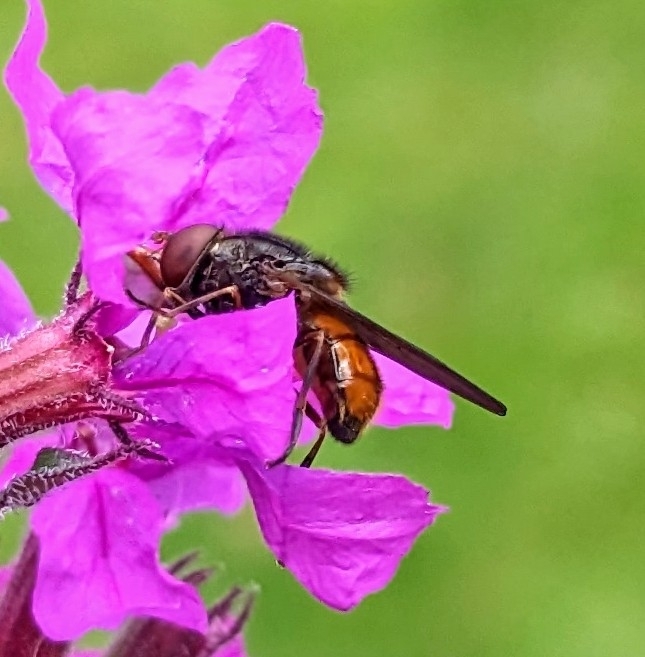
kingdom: Animalia
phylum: Arthropoda
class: Insecta
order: Diptera
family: Syrphidae
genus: Rhingia
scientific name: Rhingia campestris
